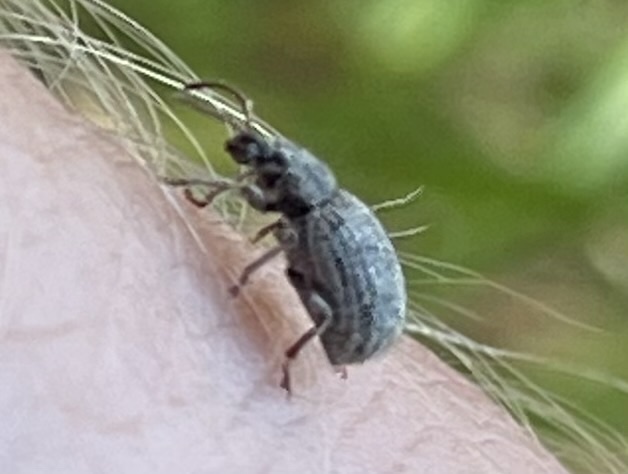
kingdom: Animalia
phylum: Arthropoda
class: Insecta
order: Coleoptera
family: Curculionidae
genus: Thricolepis
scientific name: Thricolepis inornata
